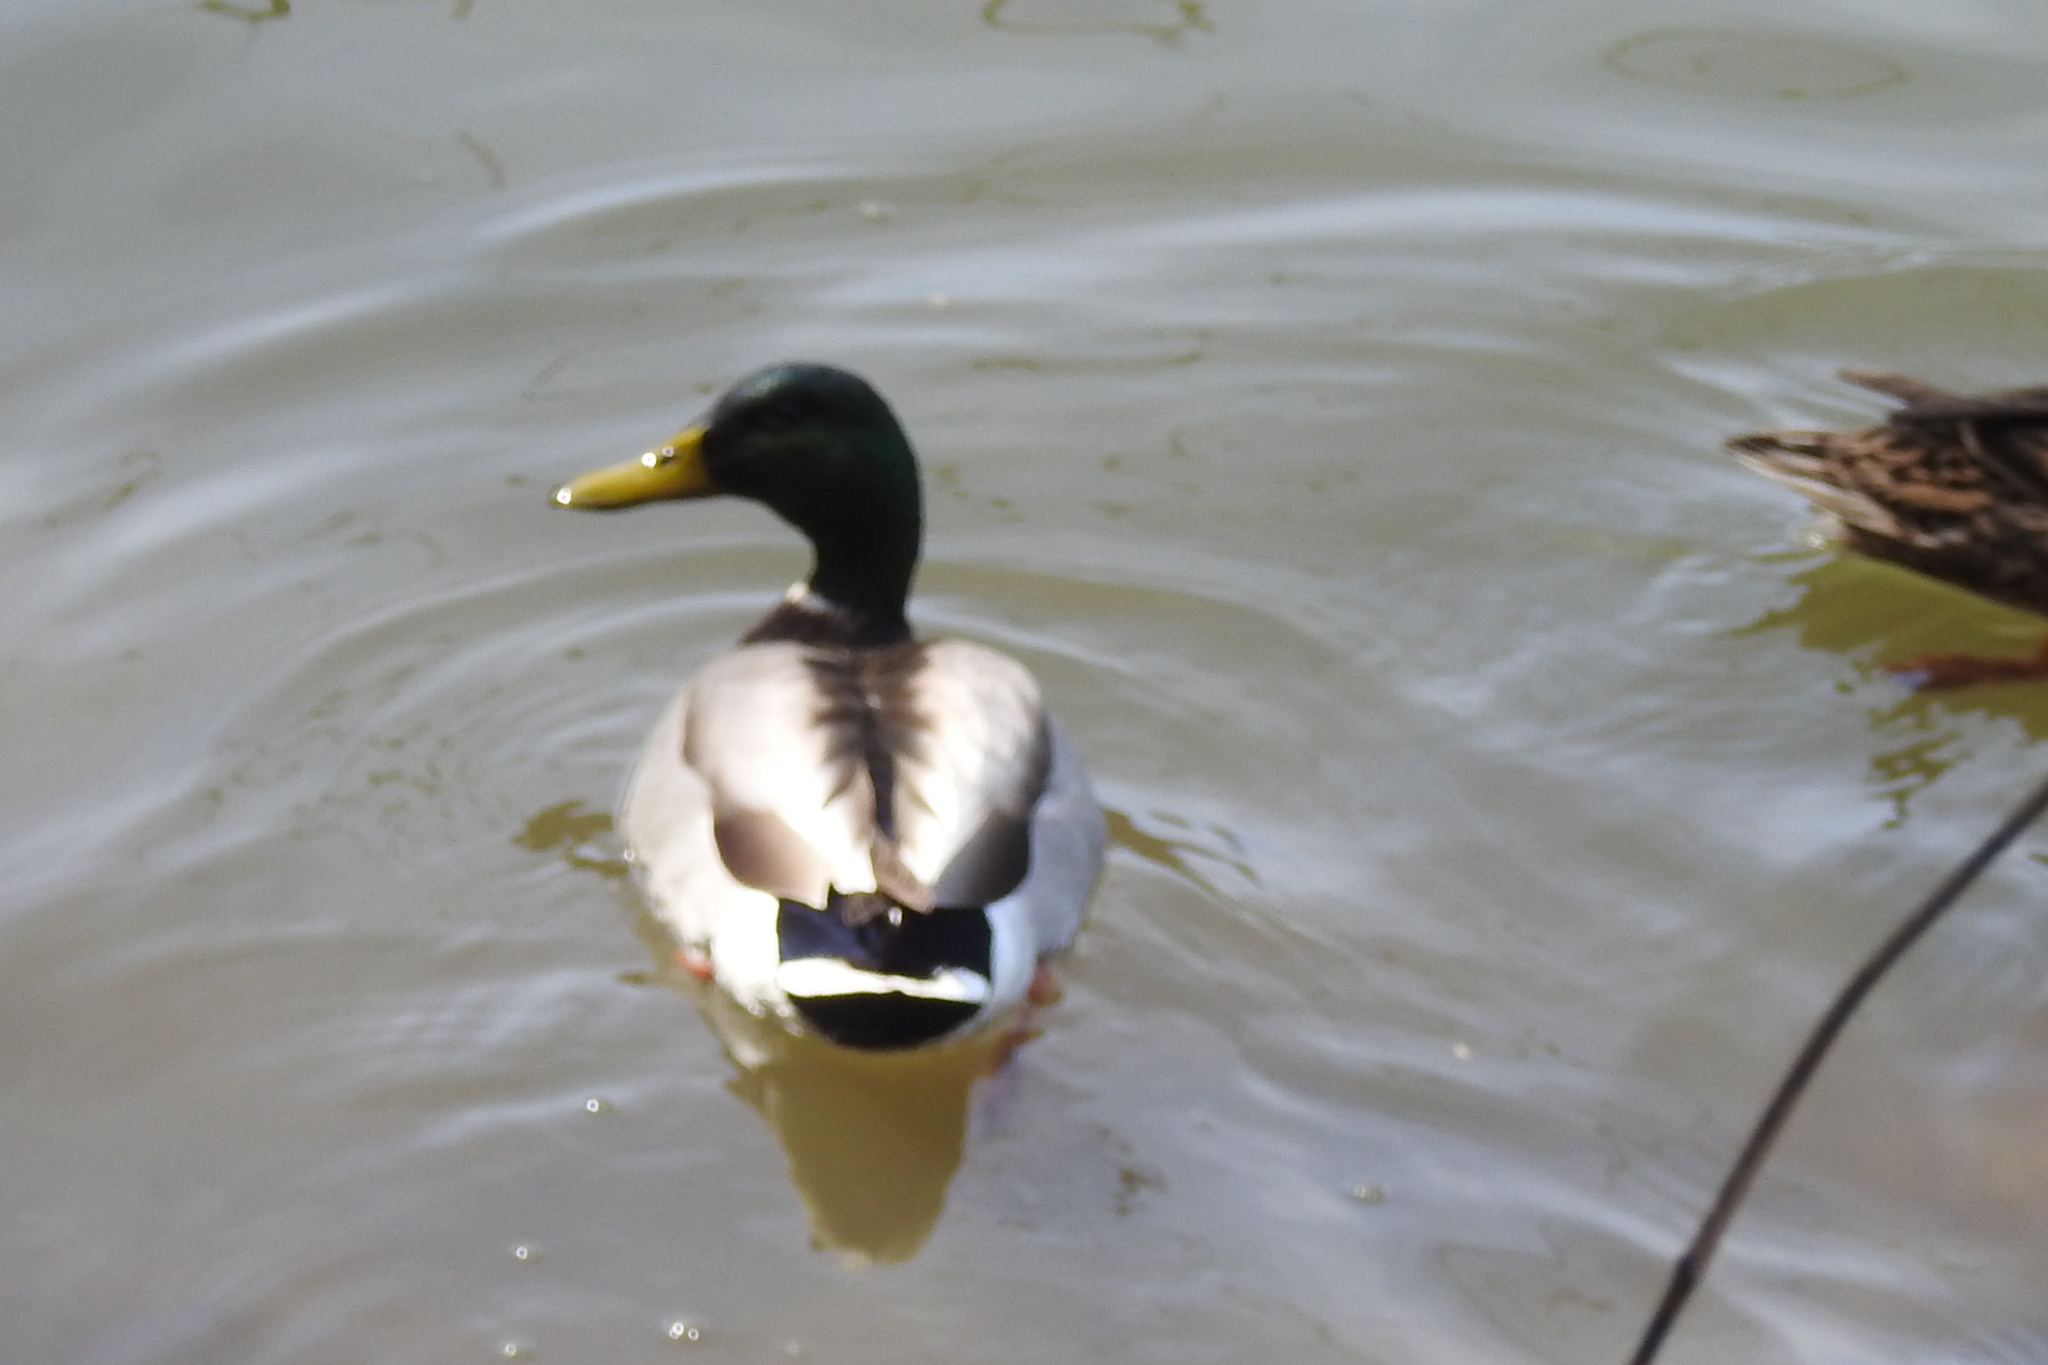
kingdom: Animalia
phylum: Chordata
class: Aves
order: Anseriformes
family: Anatidae
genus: Anas
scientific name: Anas platyrhynchos
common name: Mallard
